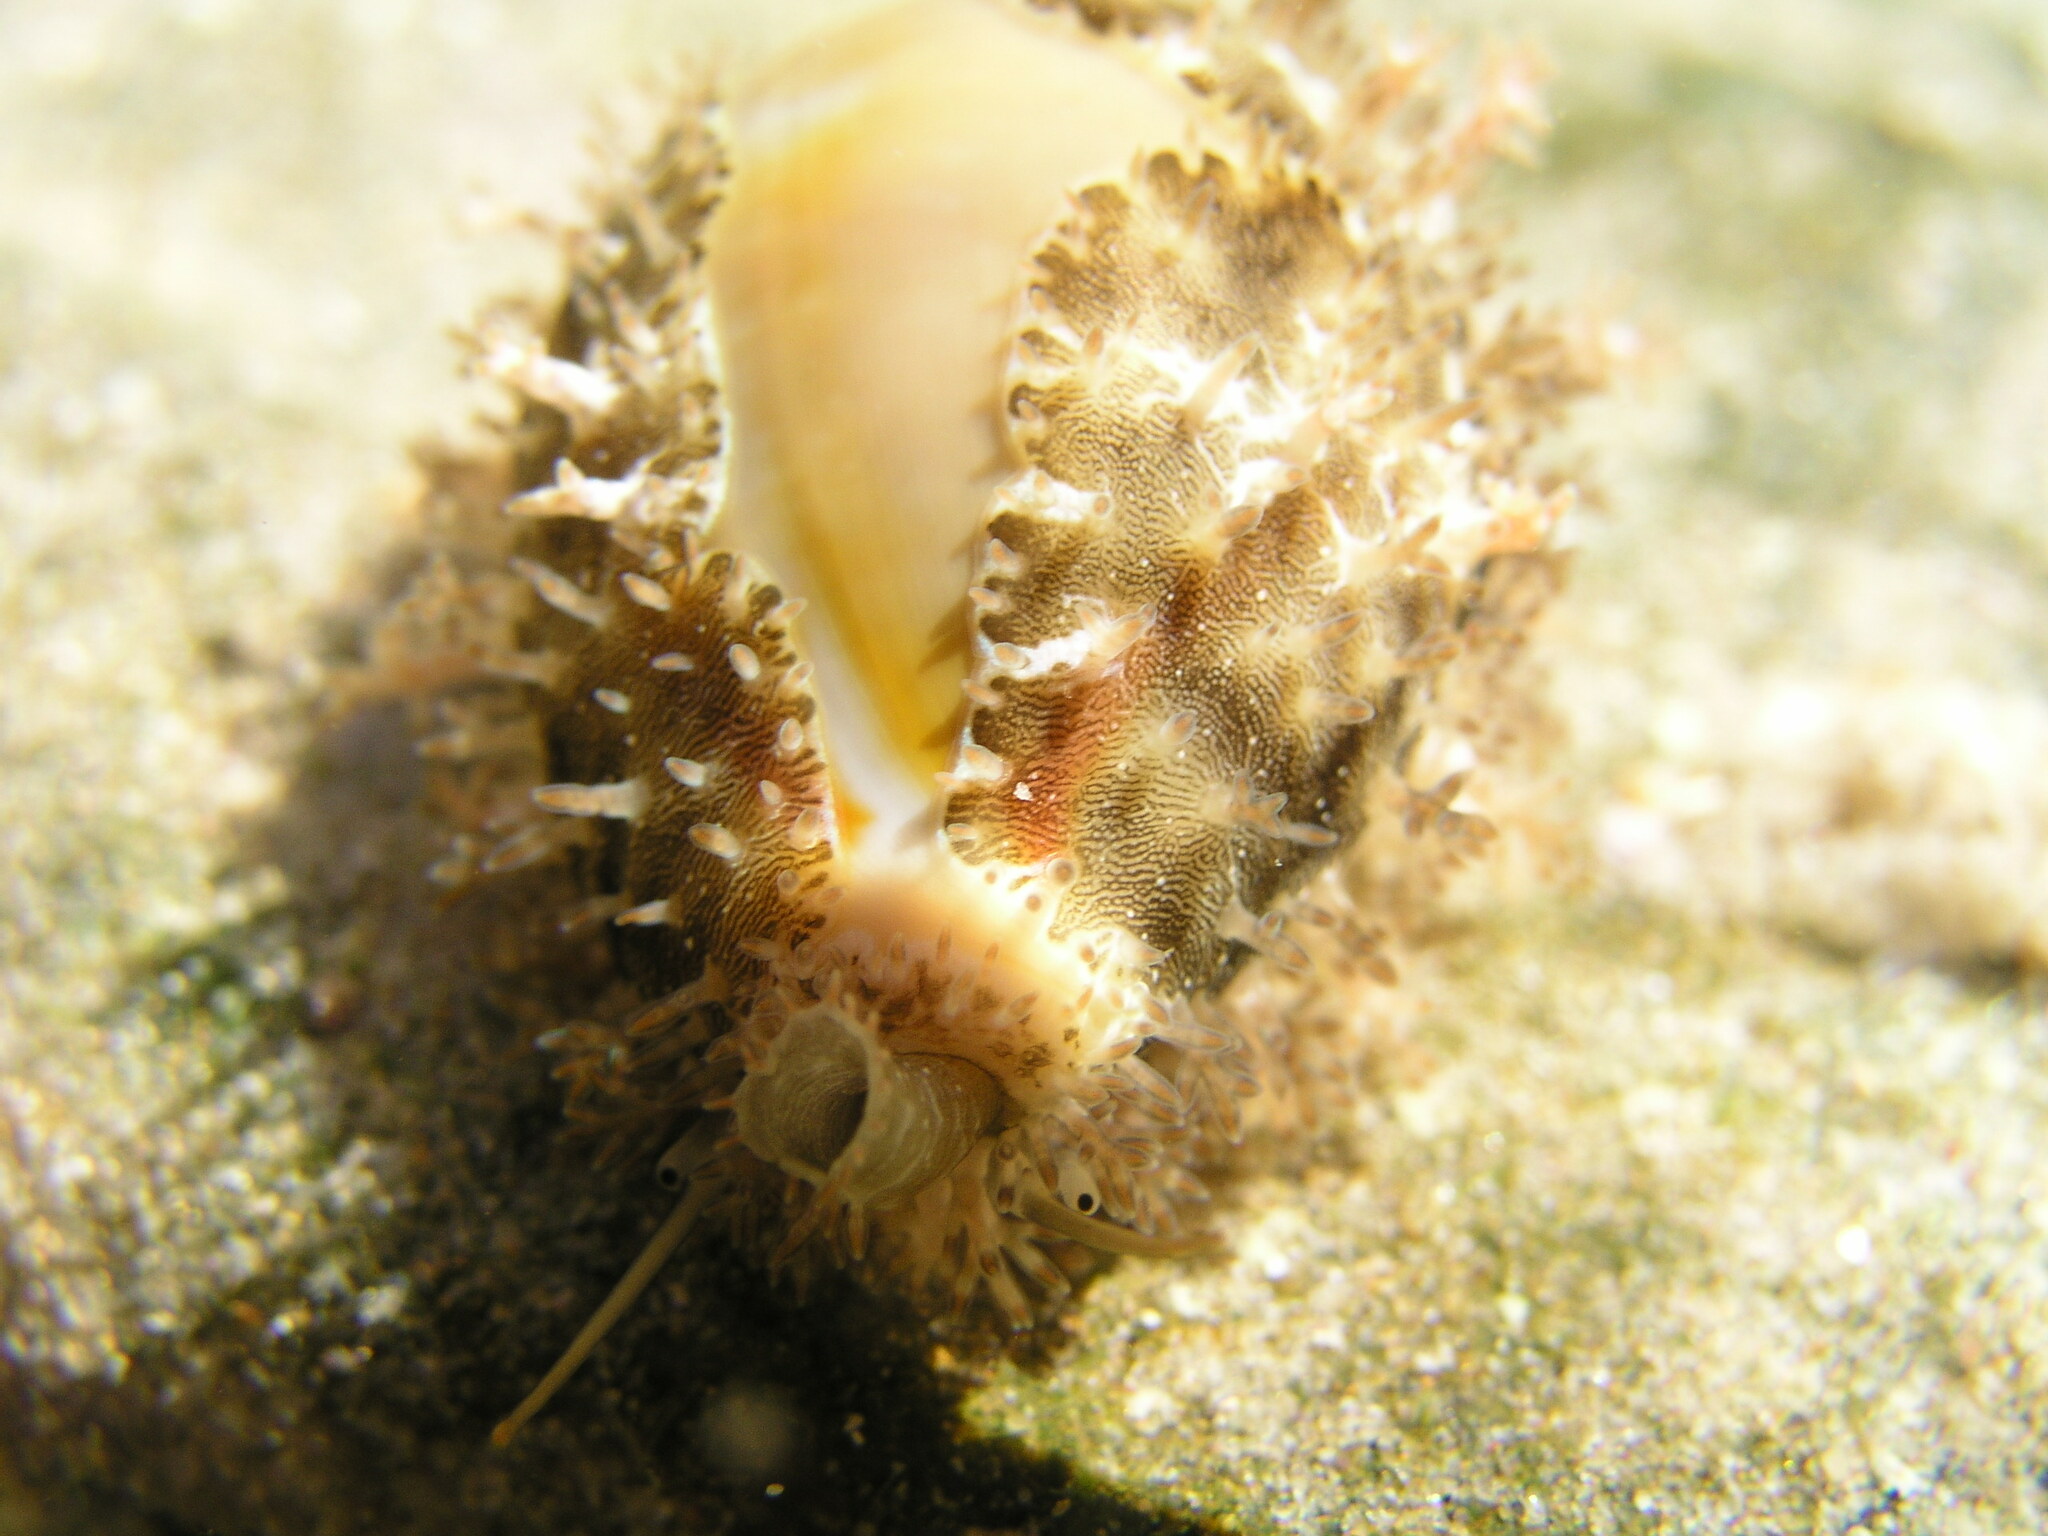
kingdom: Animalia
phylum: Mollusca
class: Gastropoda
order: Littorinimorpha
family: Cypraeidae
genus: Monetaria
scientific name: Monetaria annulus
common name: Ring cowrie
